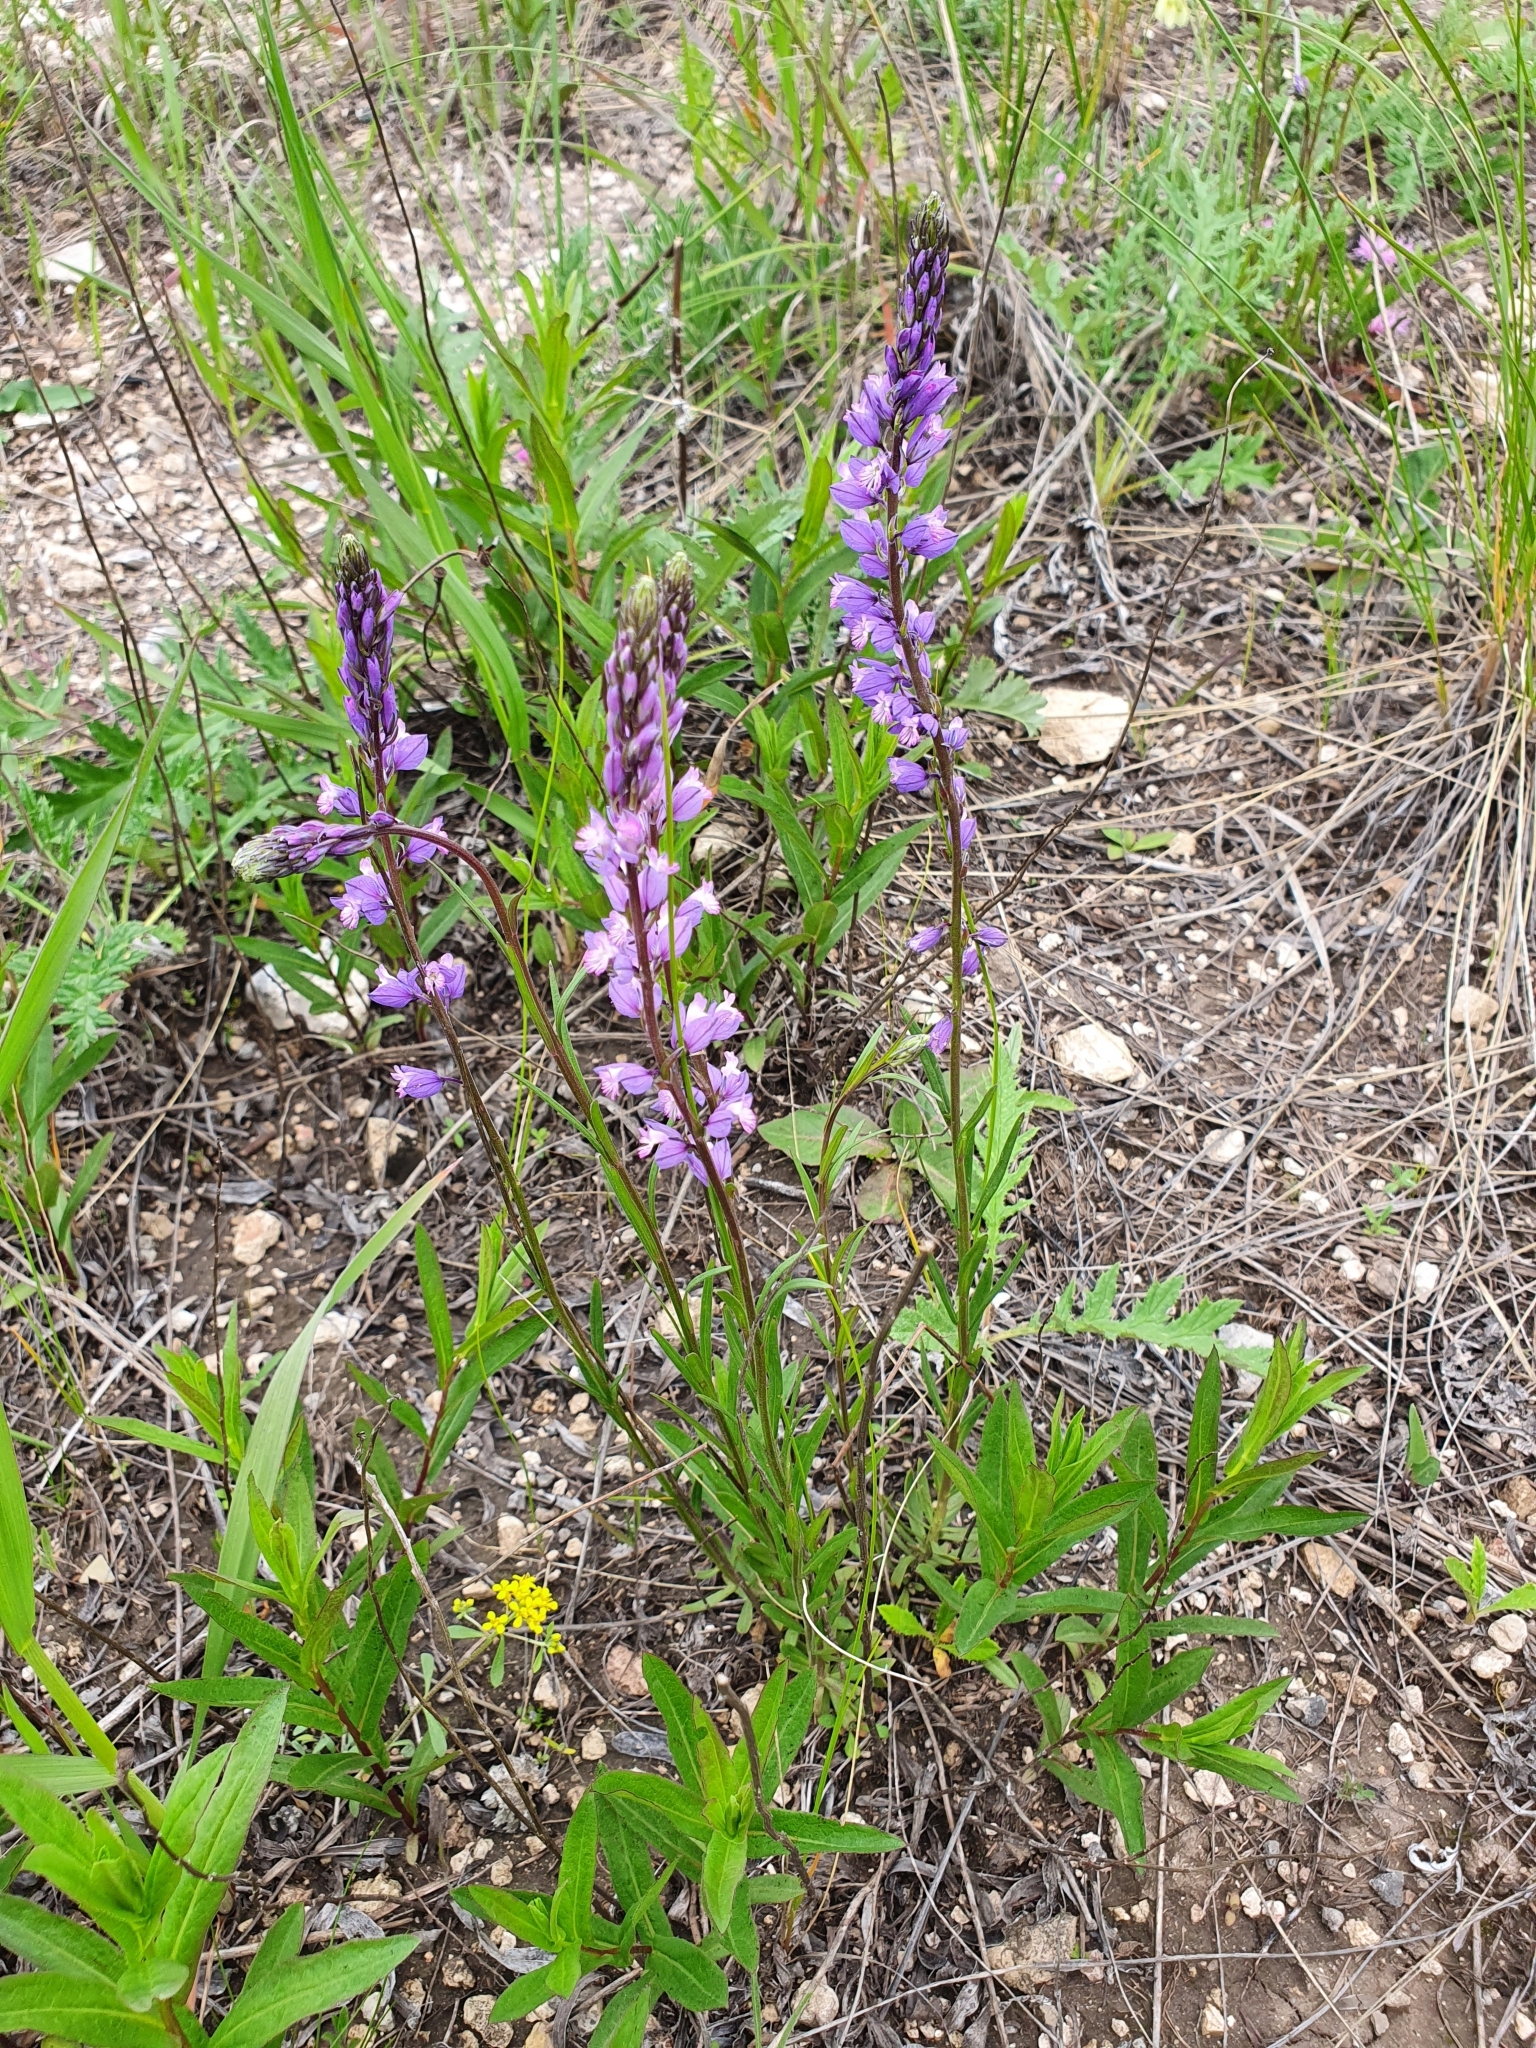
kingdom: Plantae
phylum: Tracheophyta
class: Magnoliopsida
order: Fabales
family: Polygalaceae
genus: Polygala
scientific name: Polygala comosa
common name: Tufted milkwort
